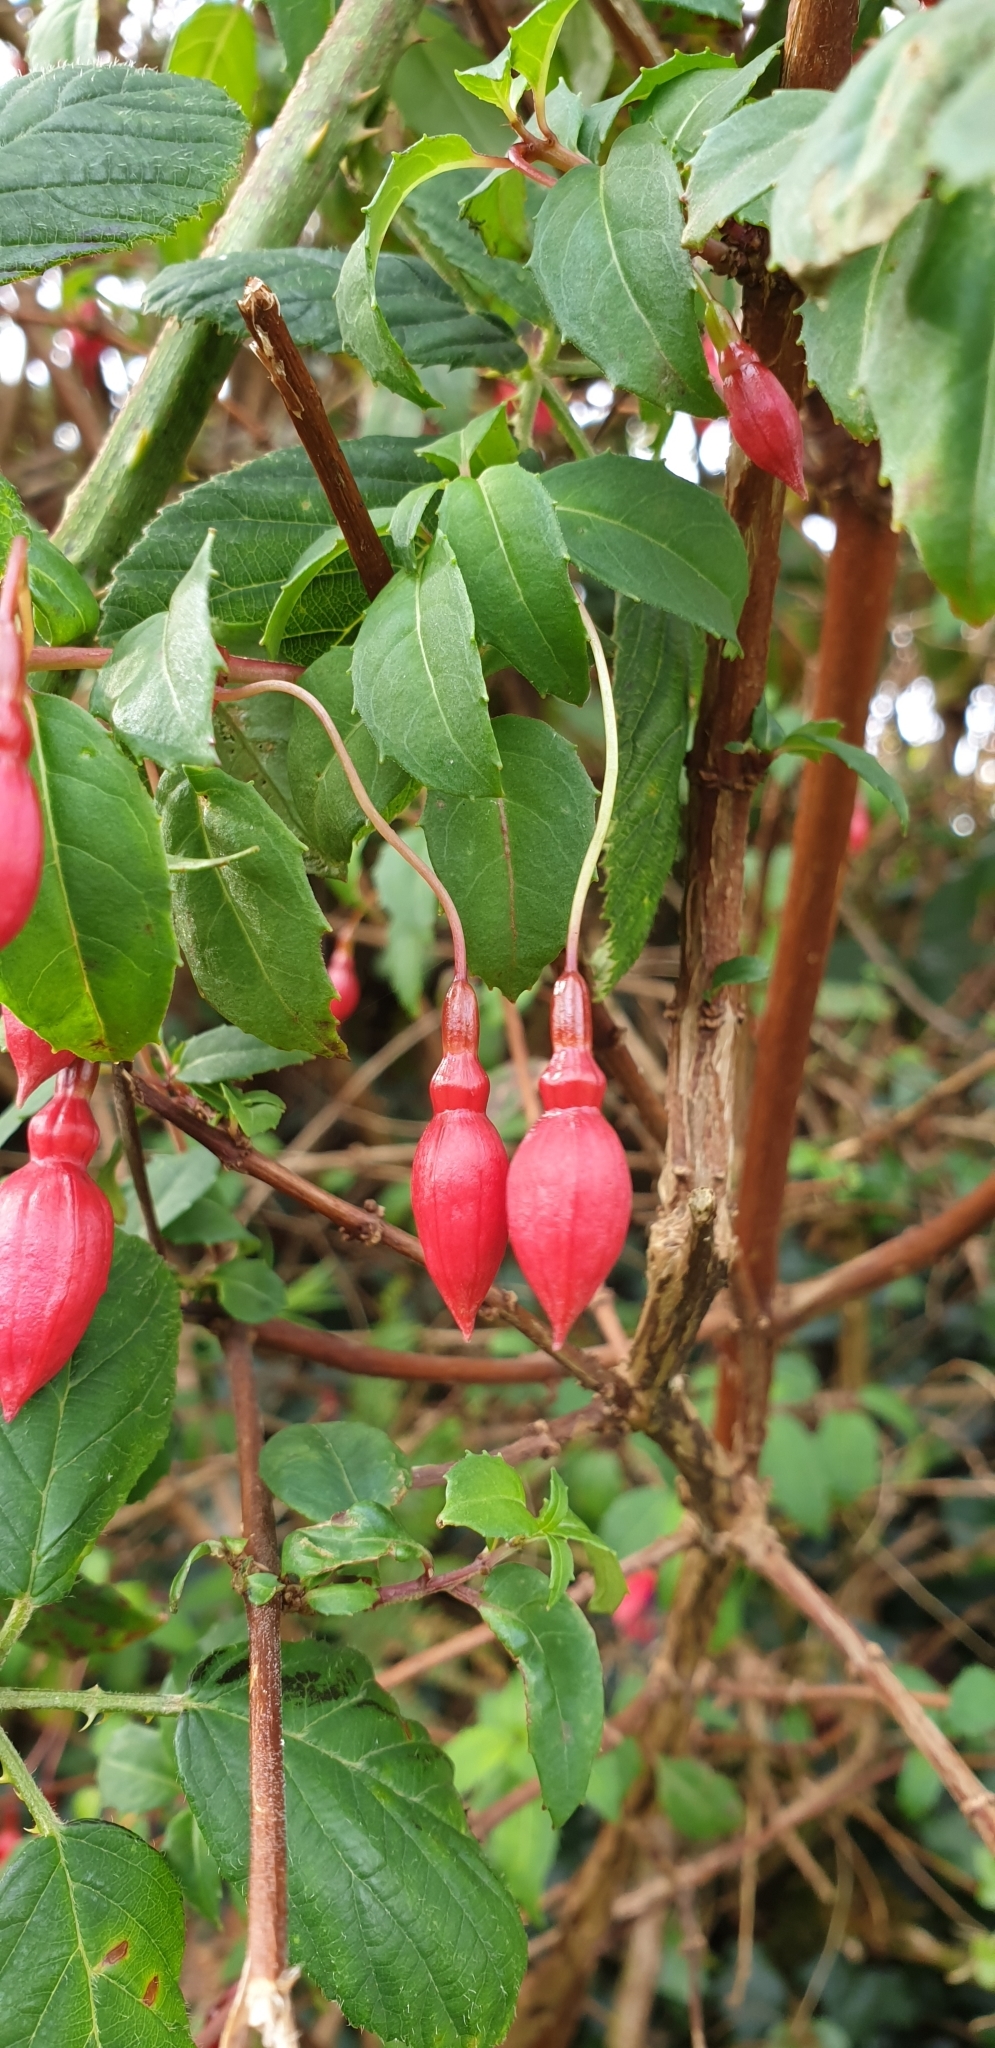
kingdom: Plantae
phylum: Tracheophyta
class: Magnoliopsida
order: Myrtales
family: Onagraceae
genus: Fuchsia
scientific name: Fuchsia magellanica
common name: Hardy fuchsia
